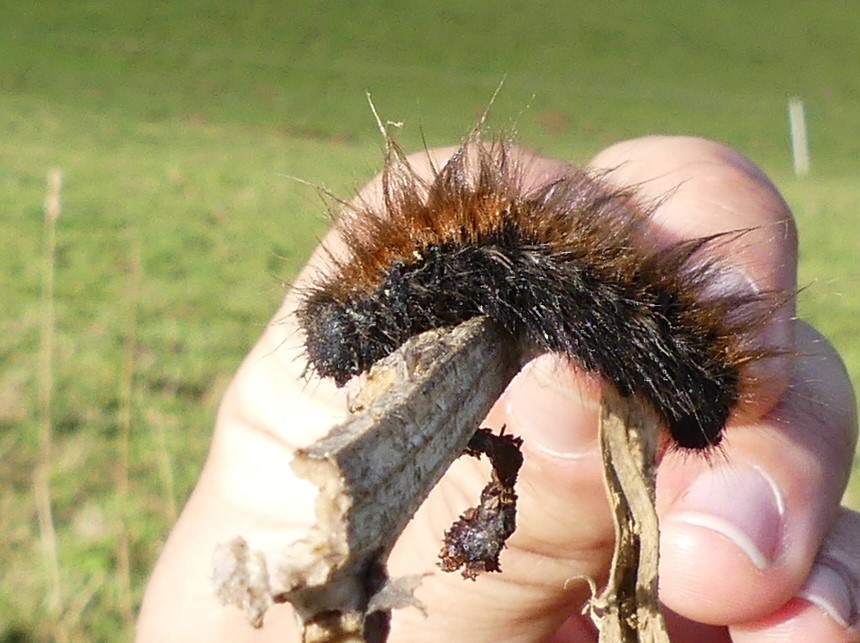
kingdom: Animalia
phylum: Arthropoda
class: Insecta
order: Lepidoptera
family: Lasiocampidae
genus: Macrothylacia
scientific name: Macrothylacia rubi
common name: Fox moth
